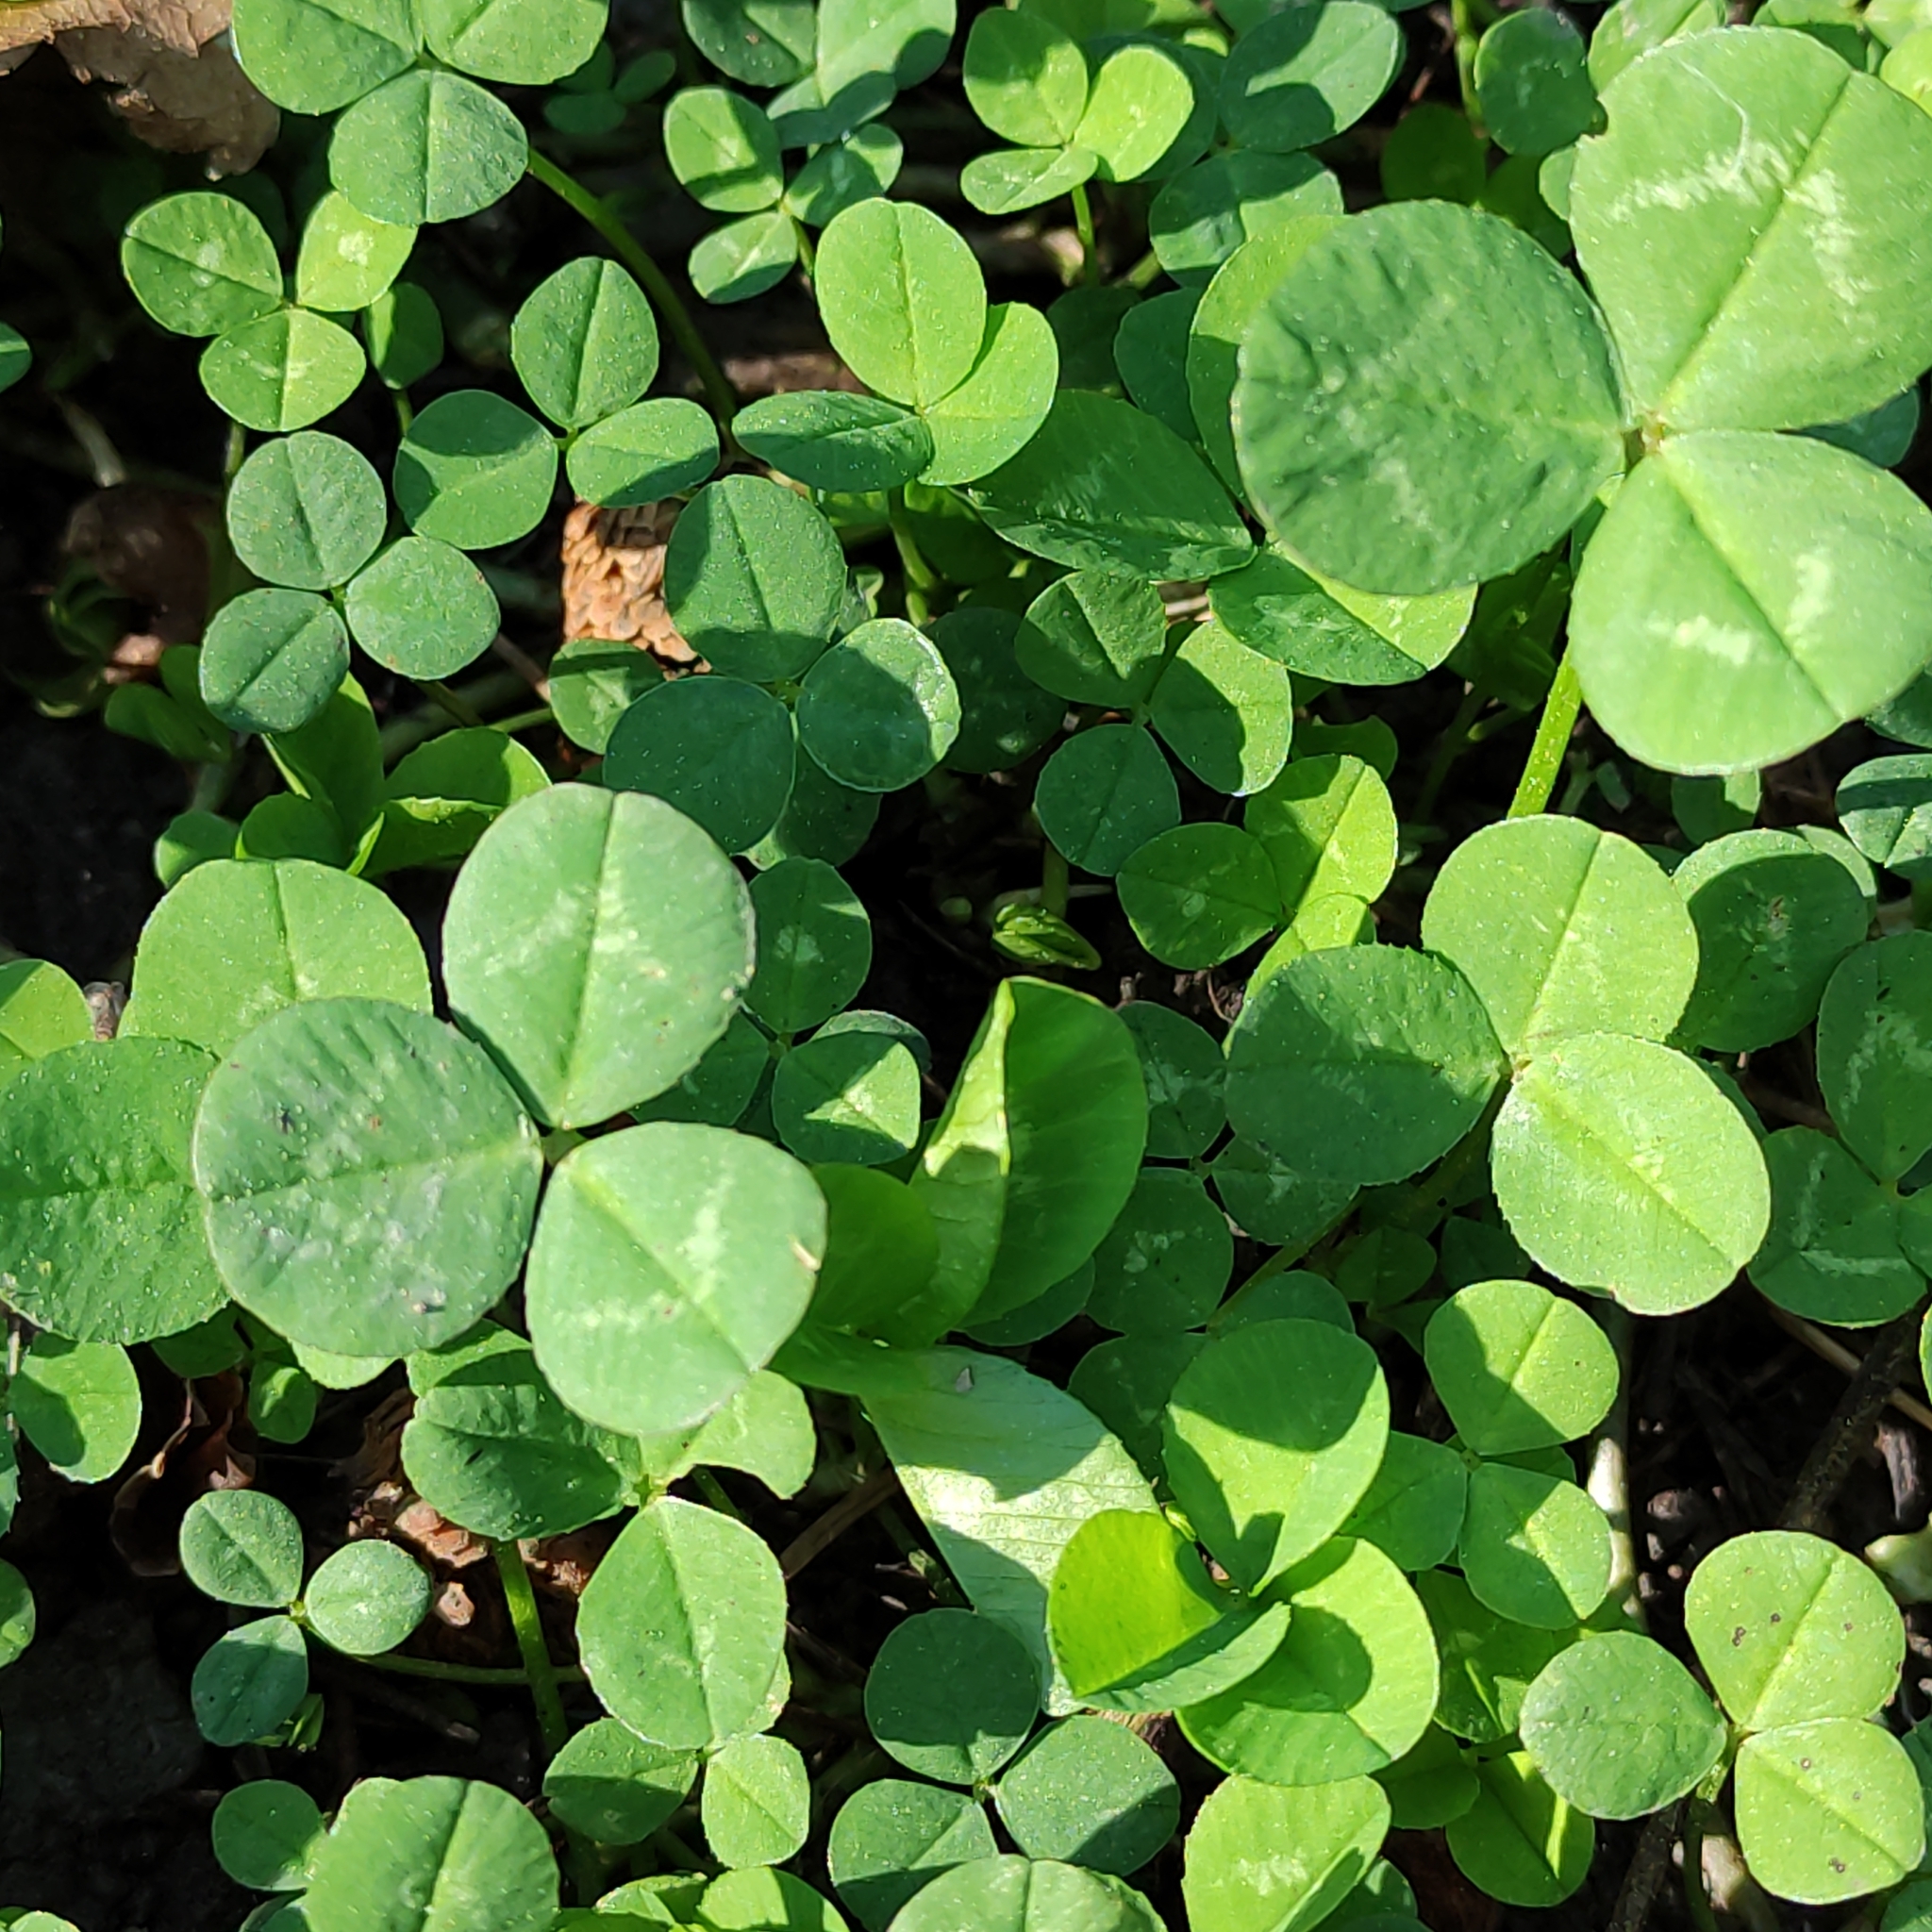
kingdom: Plantae
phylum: Tracheophyta
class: Magnoliopsida
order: Fabales
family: Fabaceae
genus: Trifolium
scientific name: Trifolium repens
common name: White clover
